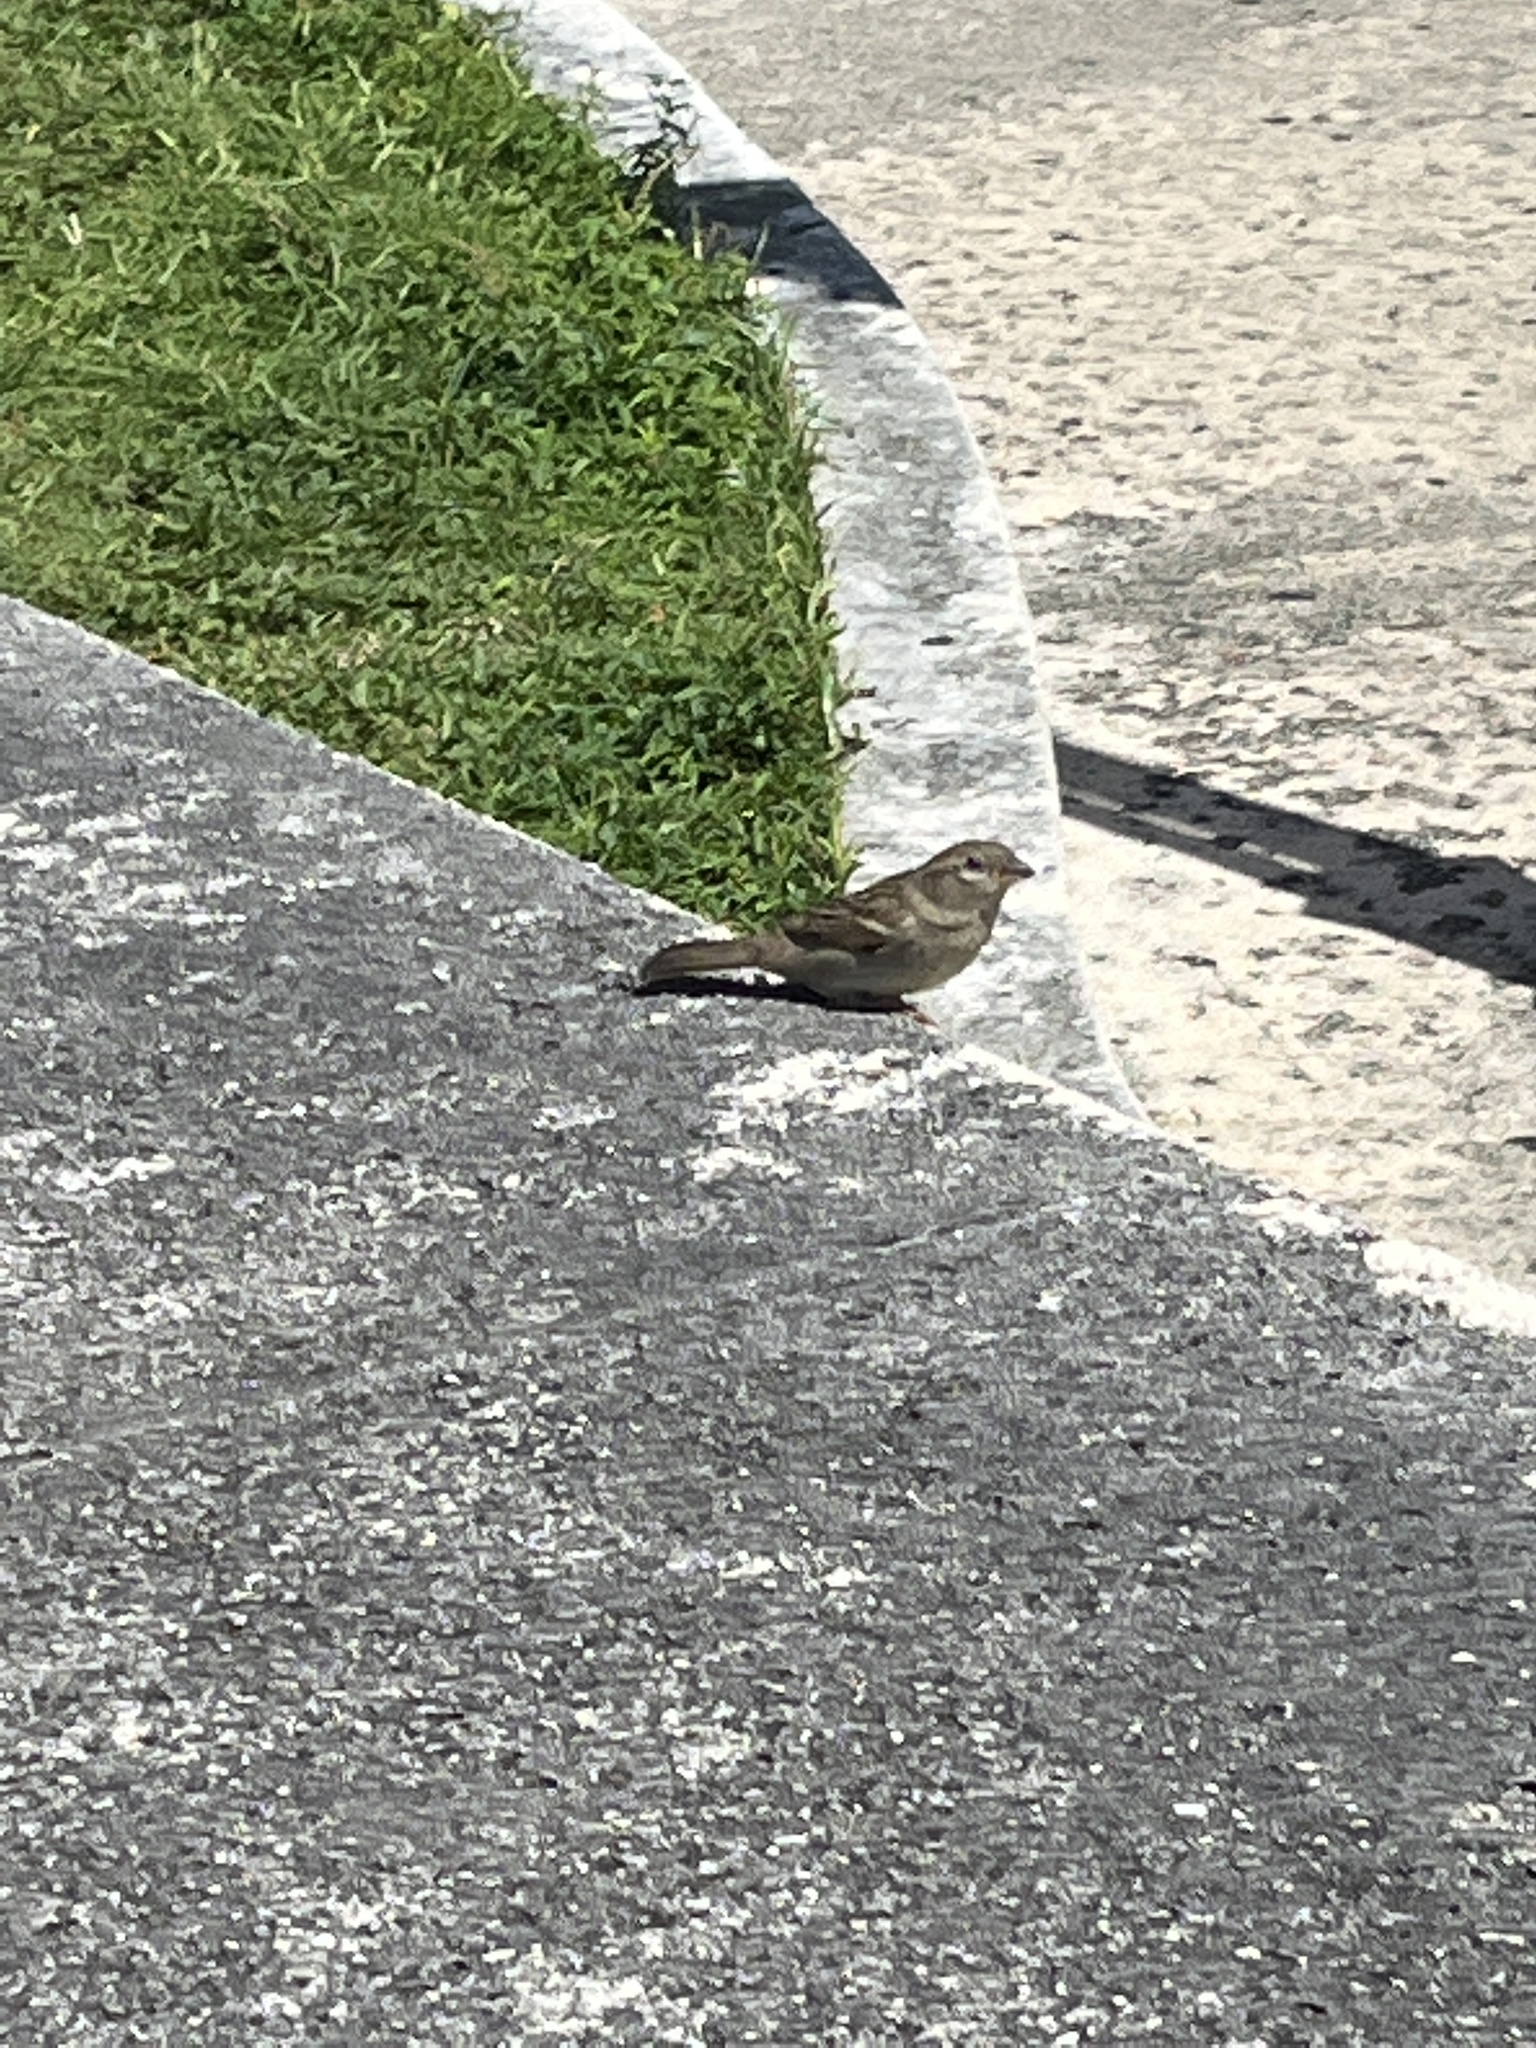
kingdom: Animalia
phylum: Chordata
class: Aves
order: Passeriformes
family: Passeridae
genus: Passer
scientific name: Passer domesticus
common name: House sparrow
